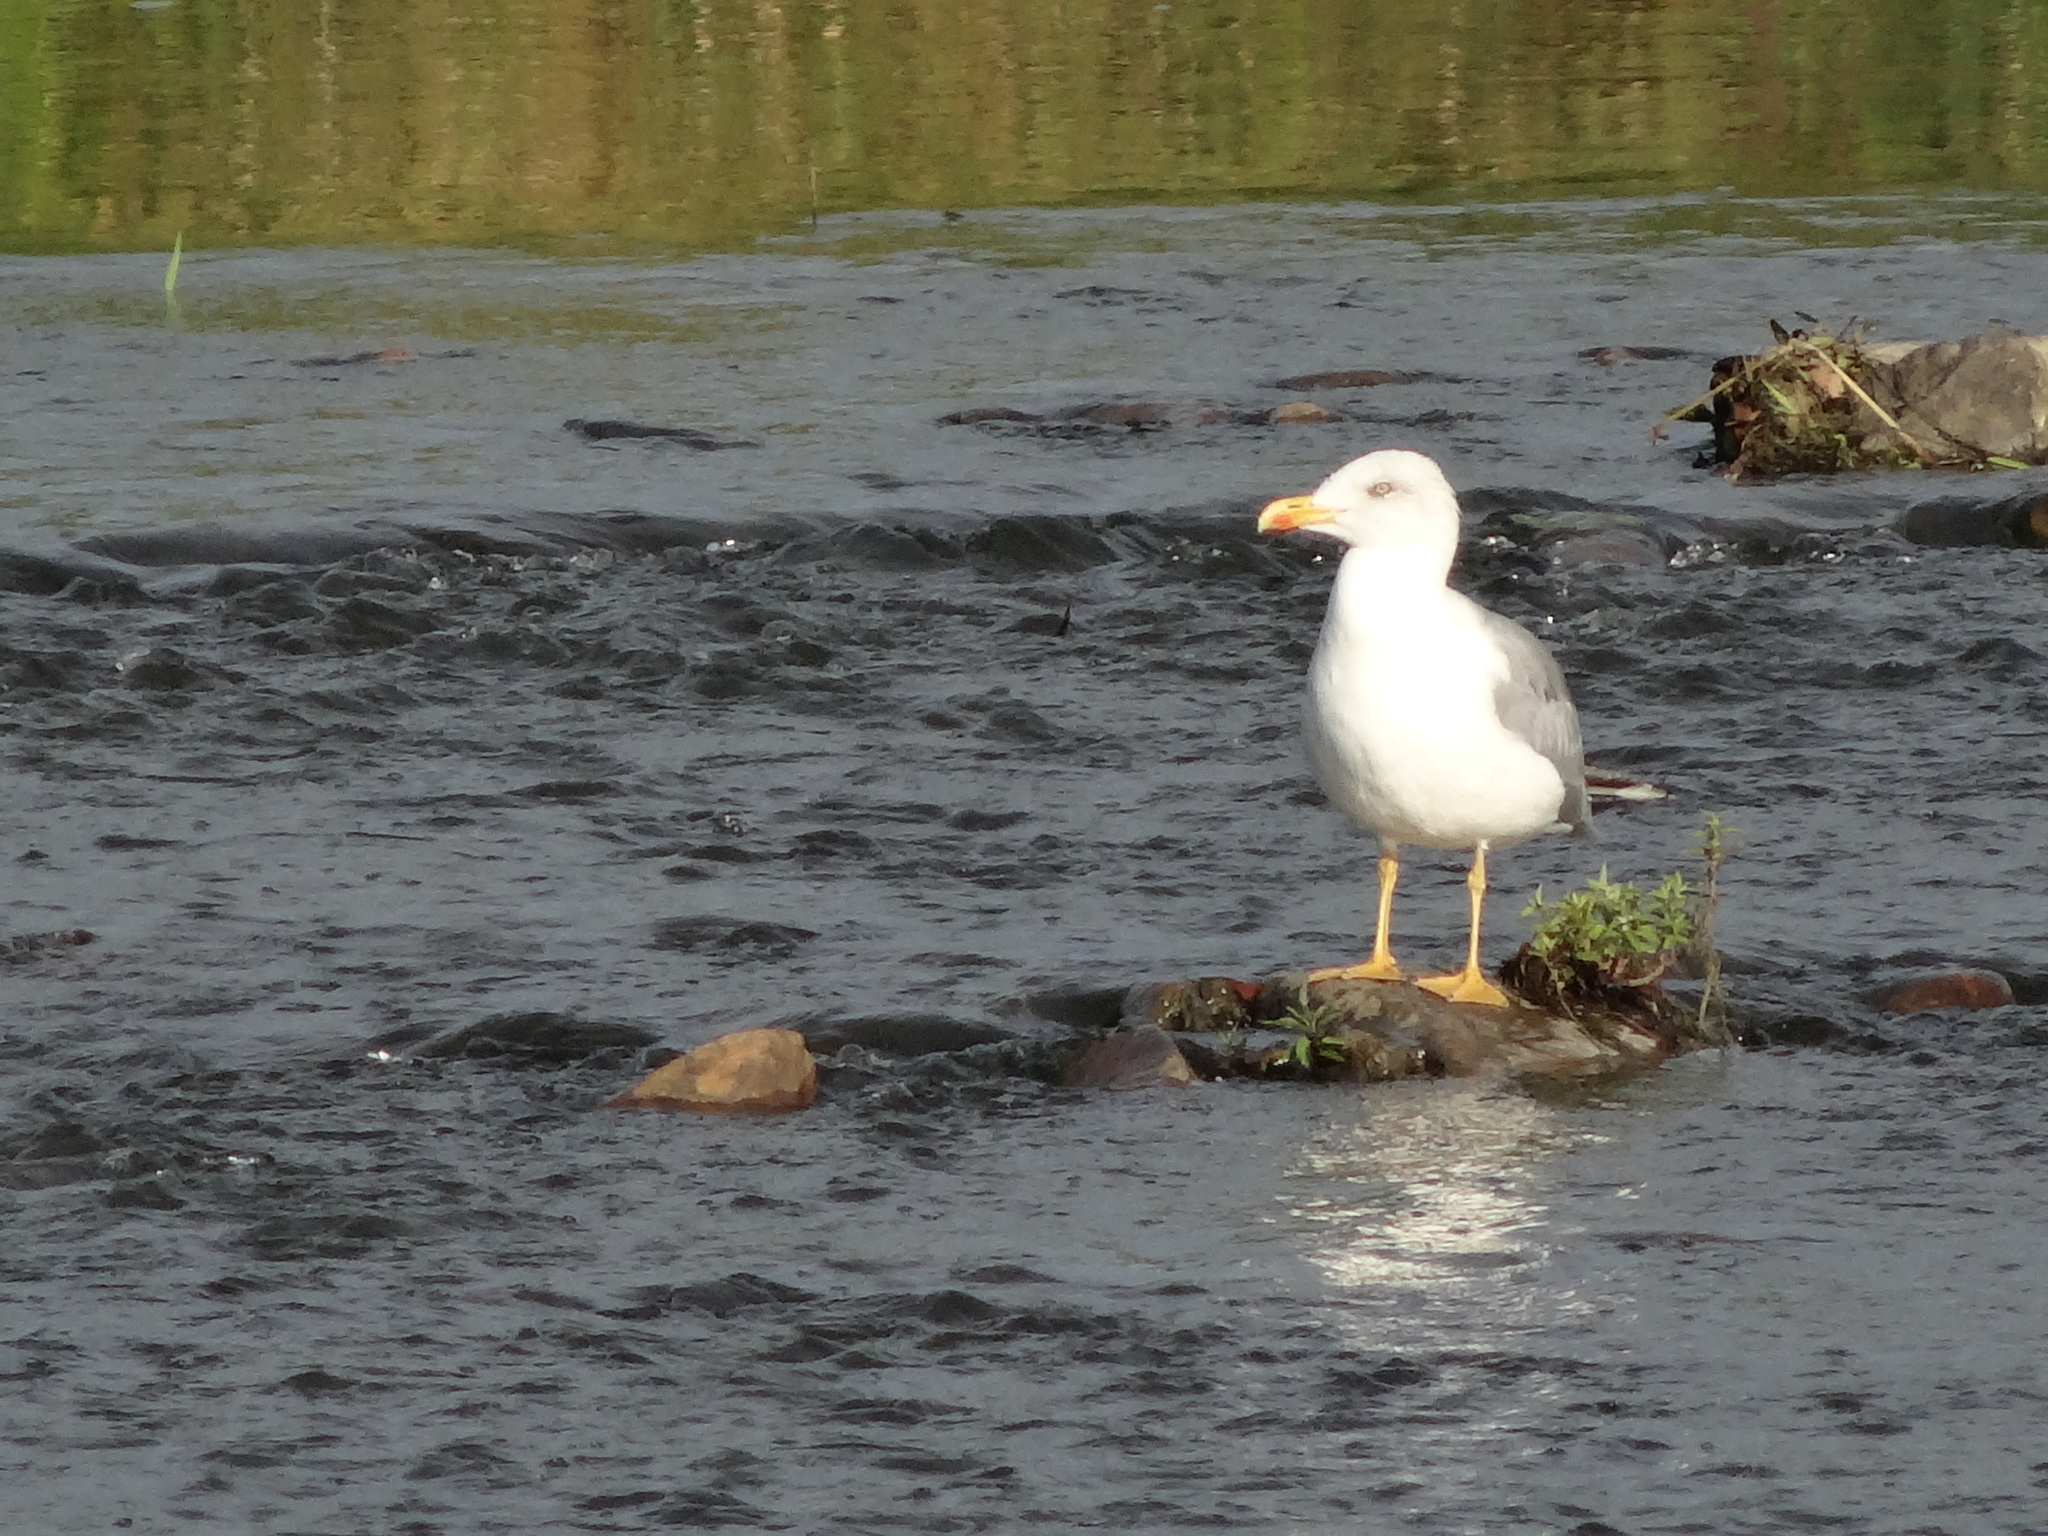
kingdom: Animalia
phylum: Chordata
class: Aves
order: Charadriiformes
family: Laridae
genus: Larus
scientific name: Larus michahellis
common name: Yellow-legged gull
